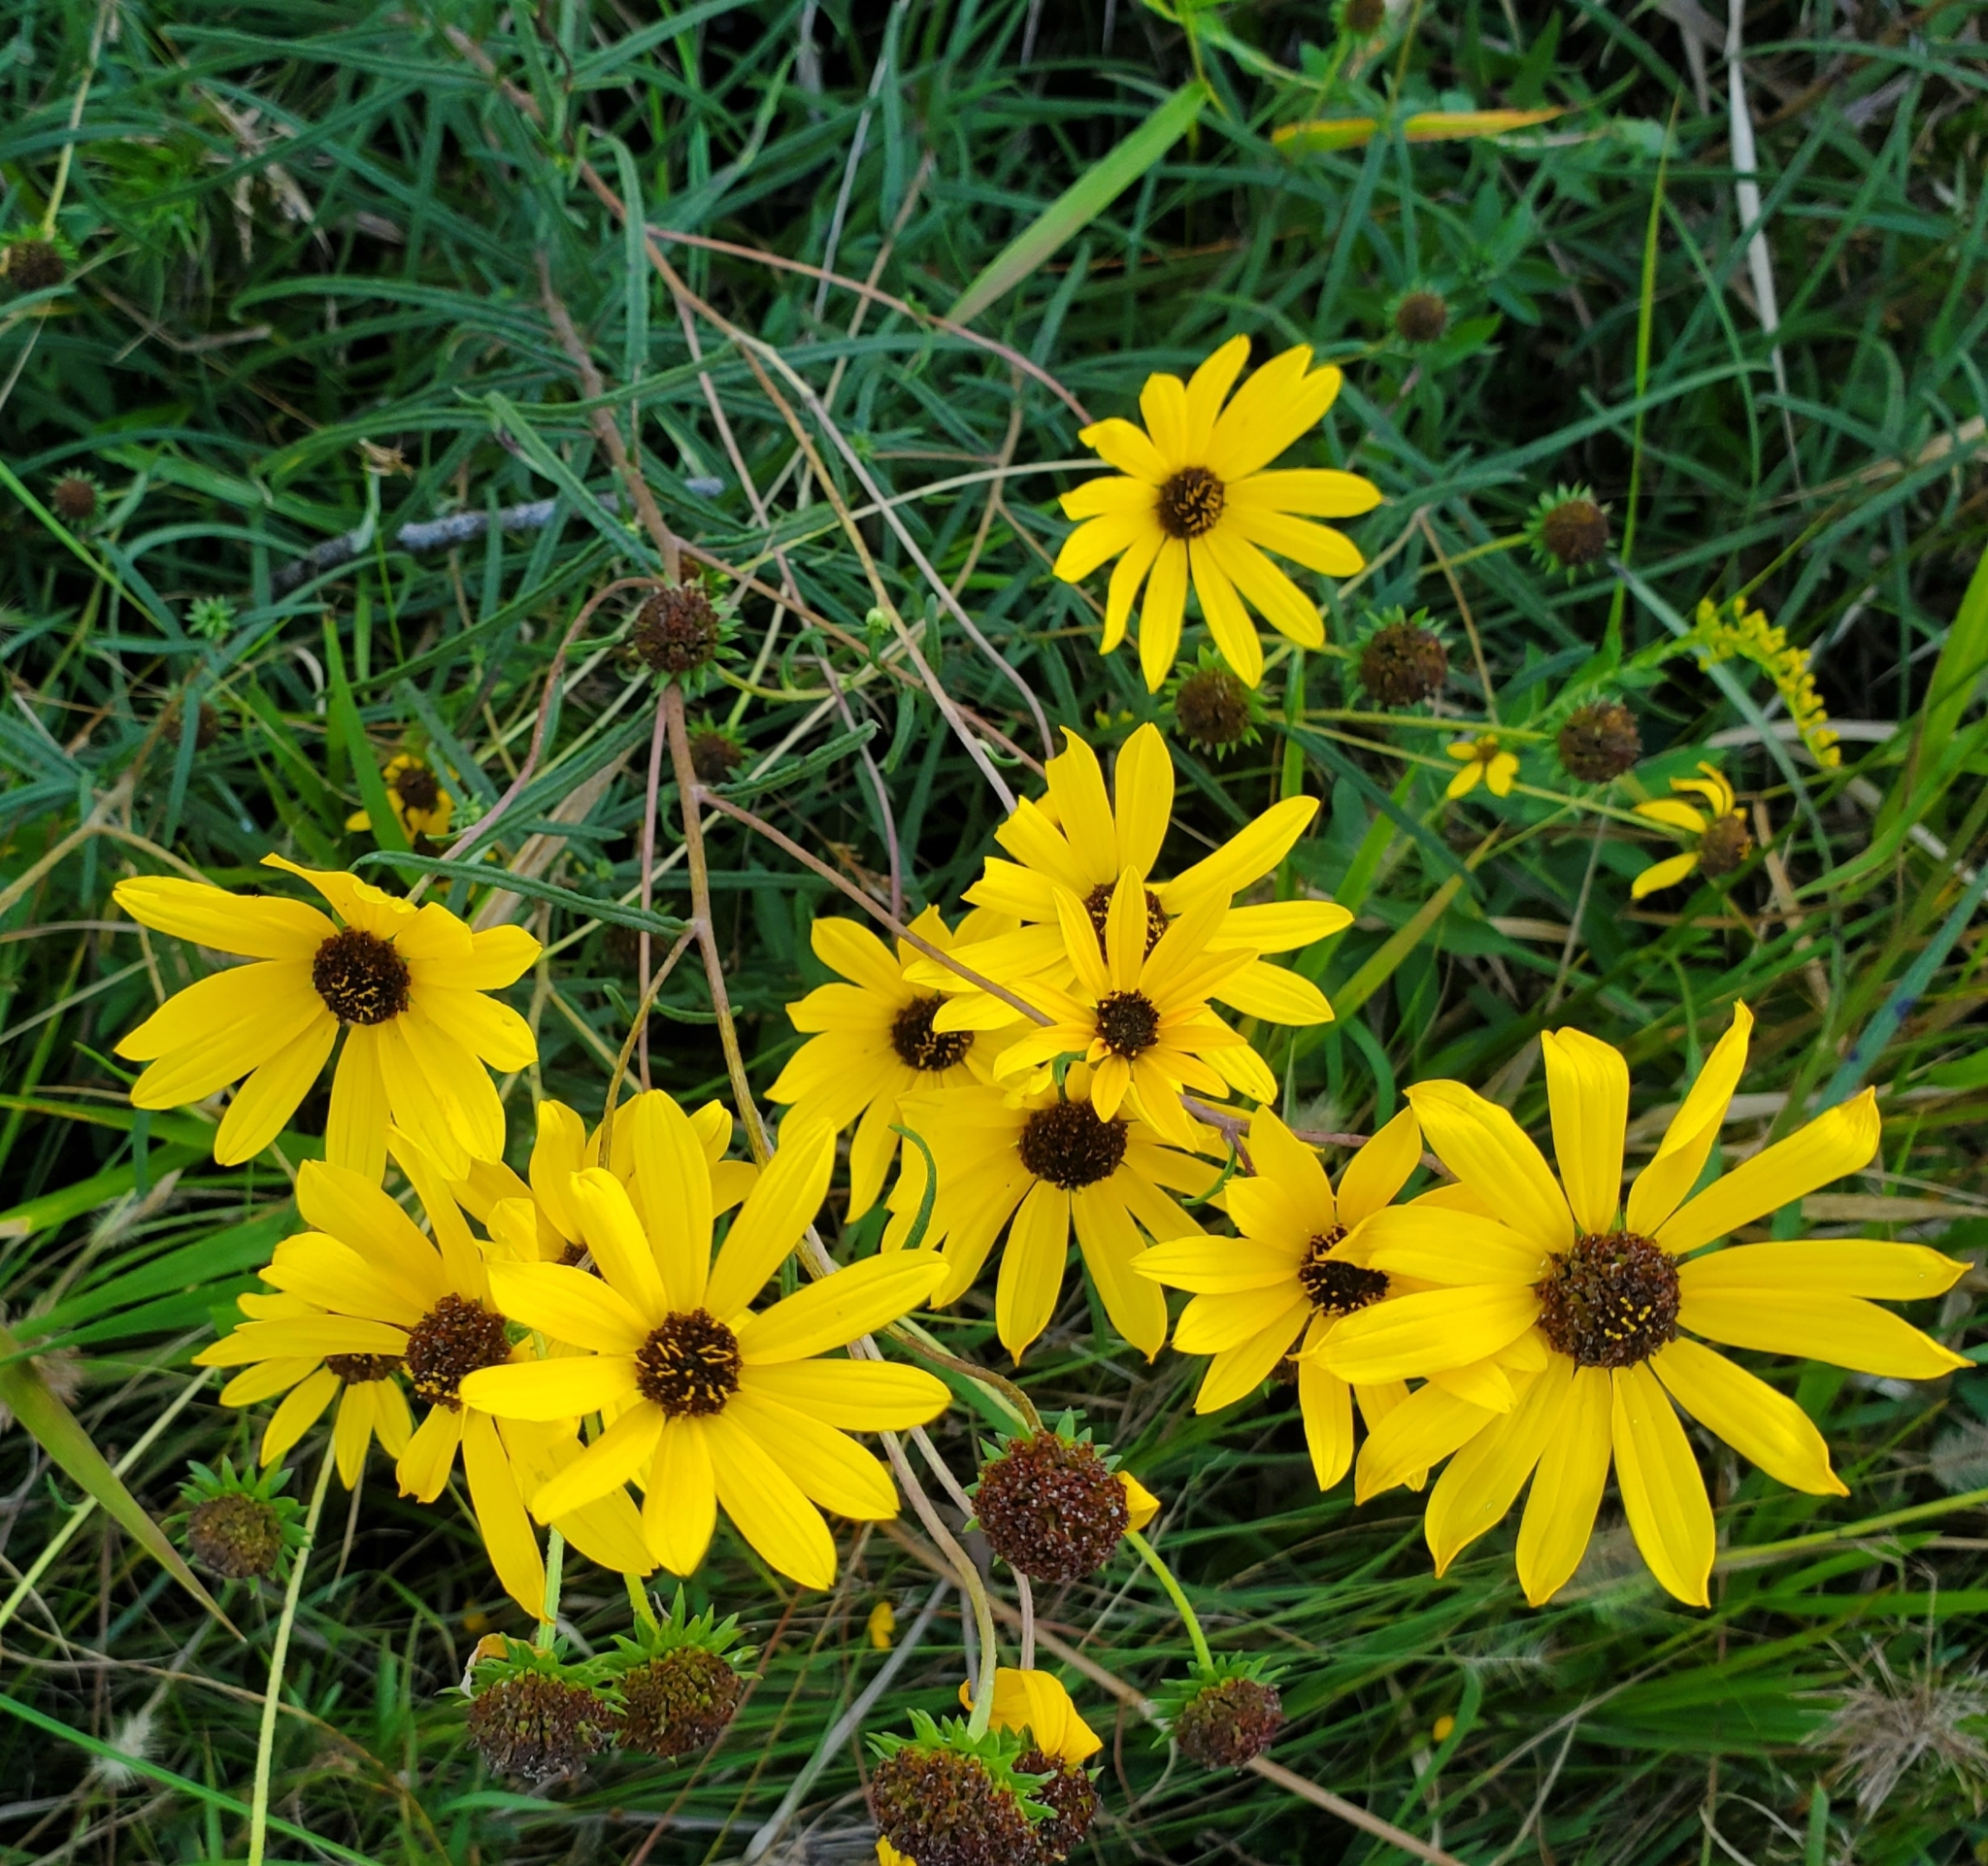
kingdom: Plantae
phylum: Tracheophyta
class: Magnoliopsida
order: Asterales
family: Asteraceae
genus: Helianthus
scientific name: Helianthus angustifolius
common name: Swamp sunflower
